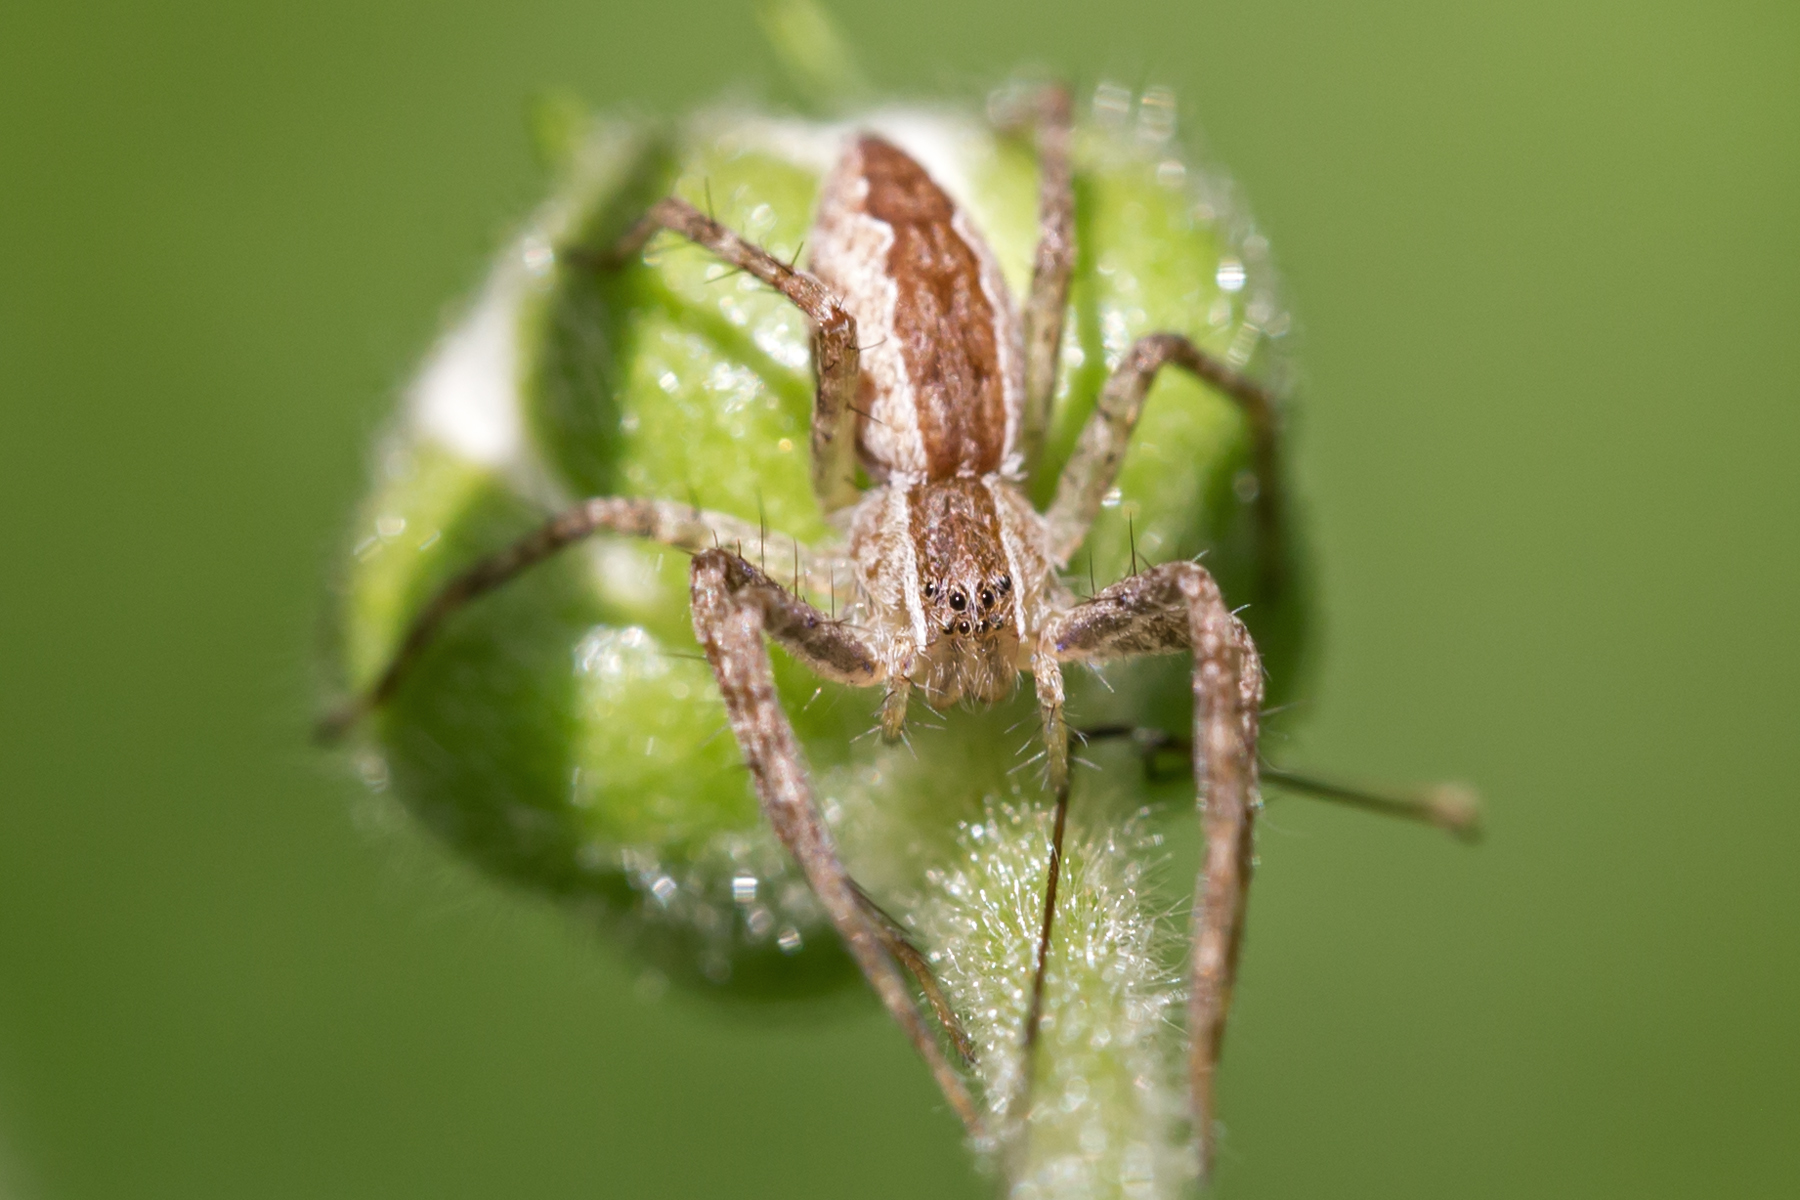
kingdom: Animalia
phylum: Arthropoda
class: Arachnida
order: Araneae
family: Pisauridae
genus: Pisaurina
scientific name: Pisaurina mira
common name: American nursery web spider
